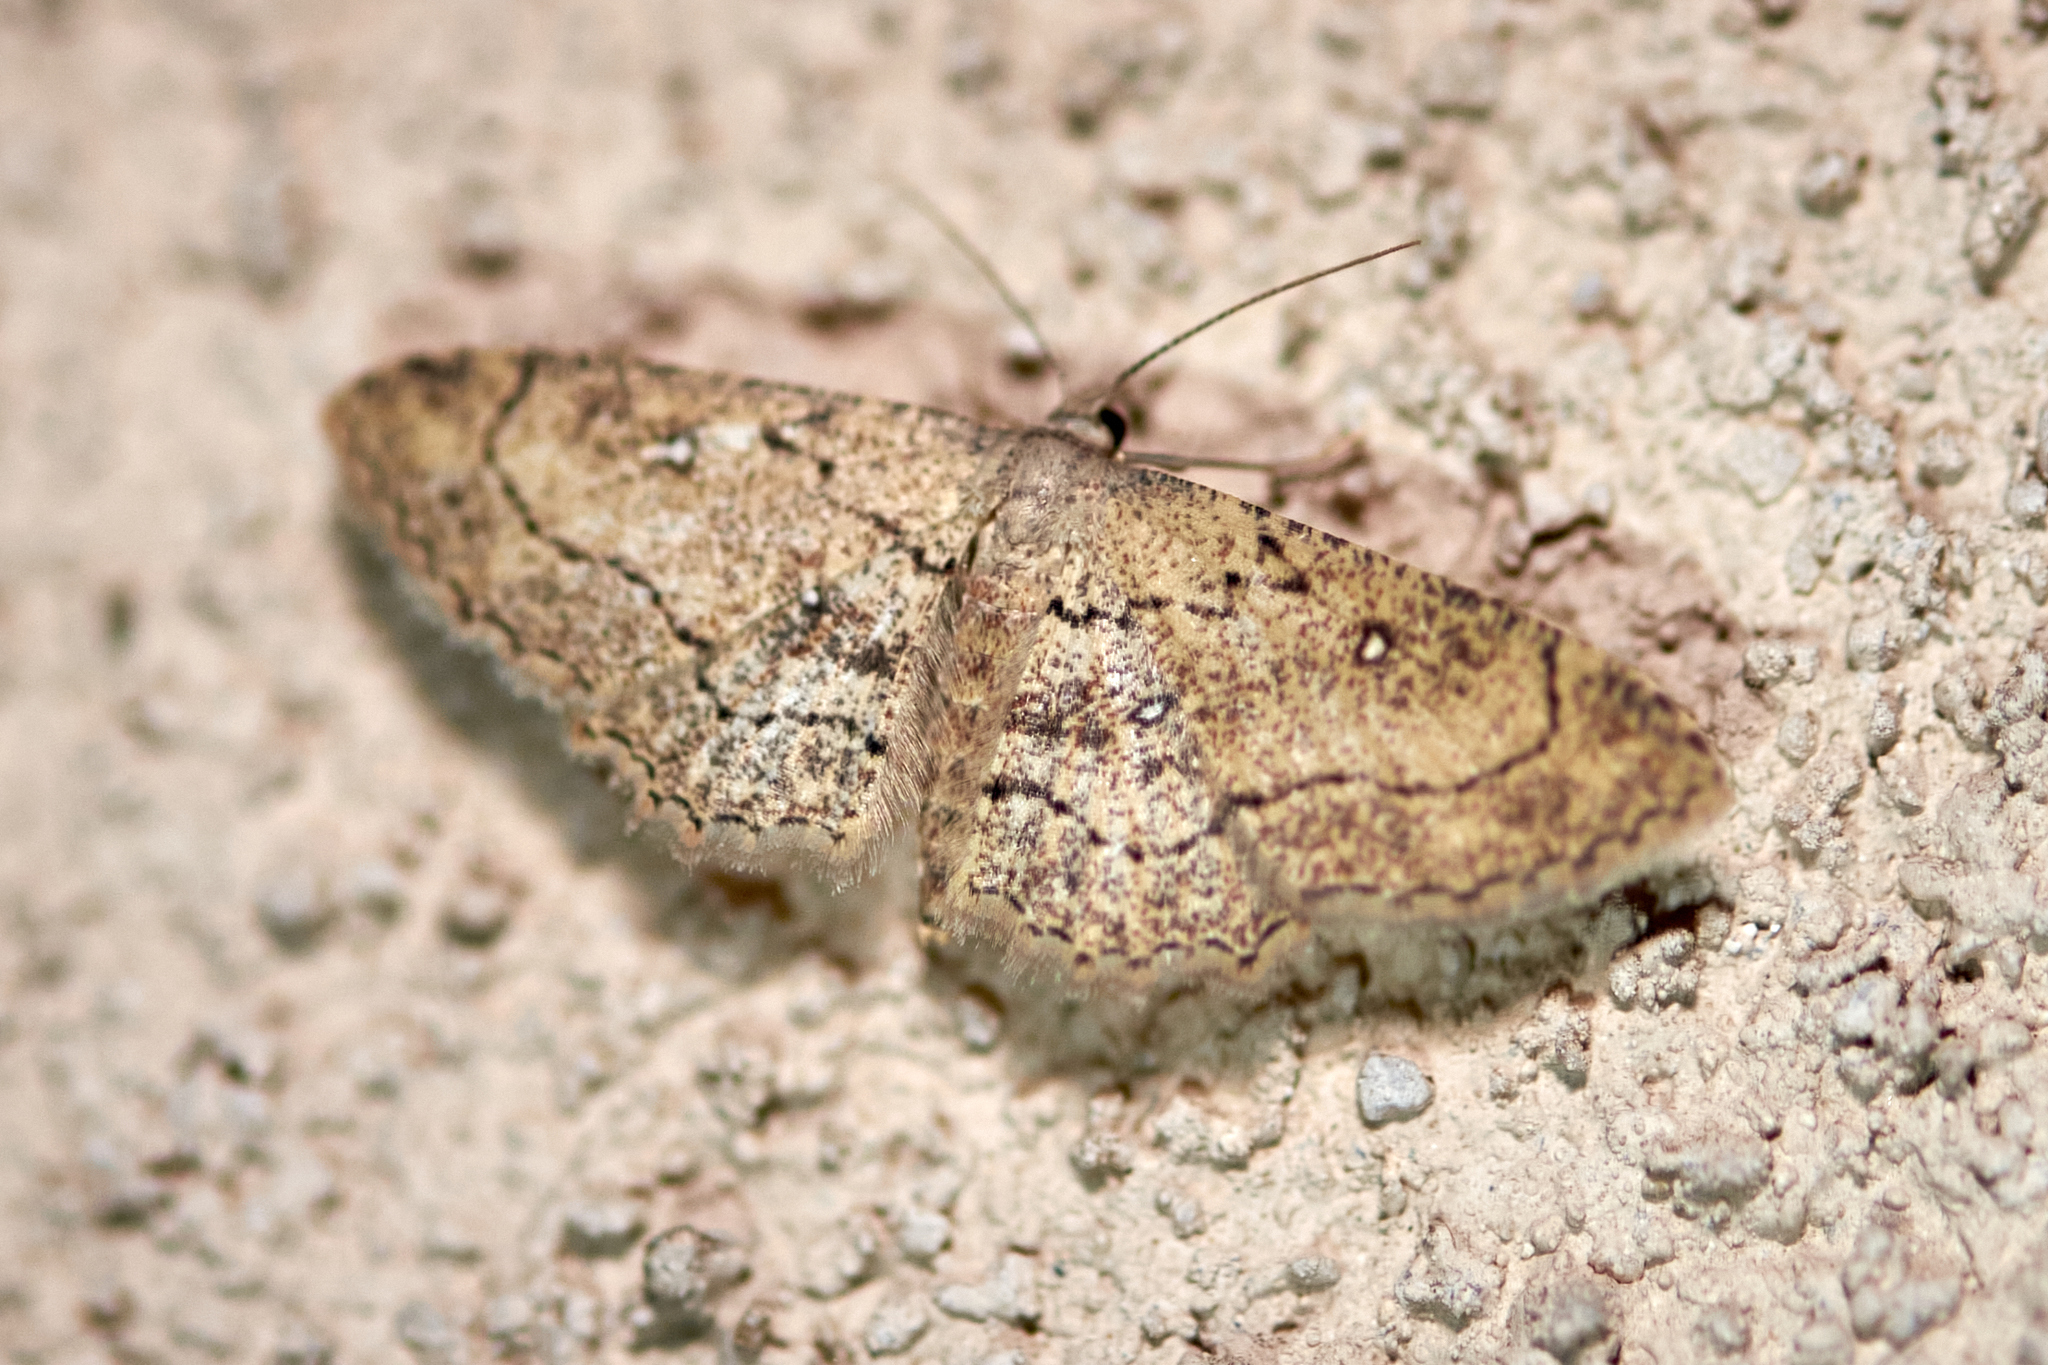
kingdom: Animalia
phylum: Arthropoda
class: Insecta
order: Lepidoptera
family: Geometridae
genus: Cyclophora
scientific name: Cyclophora nanaria
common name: Cankerworm
